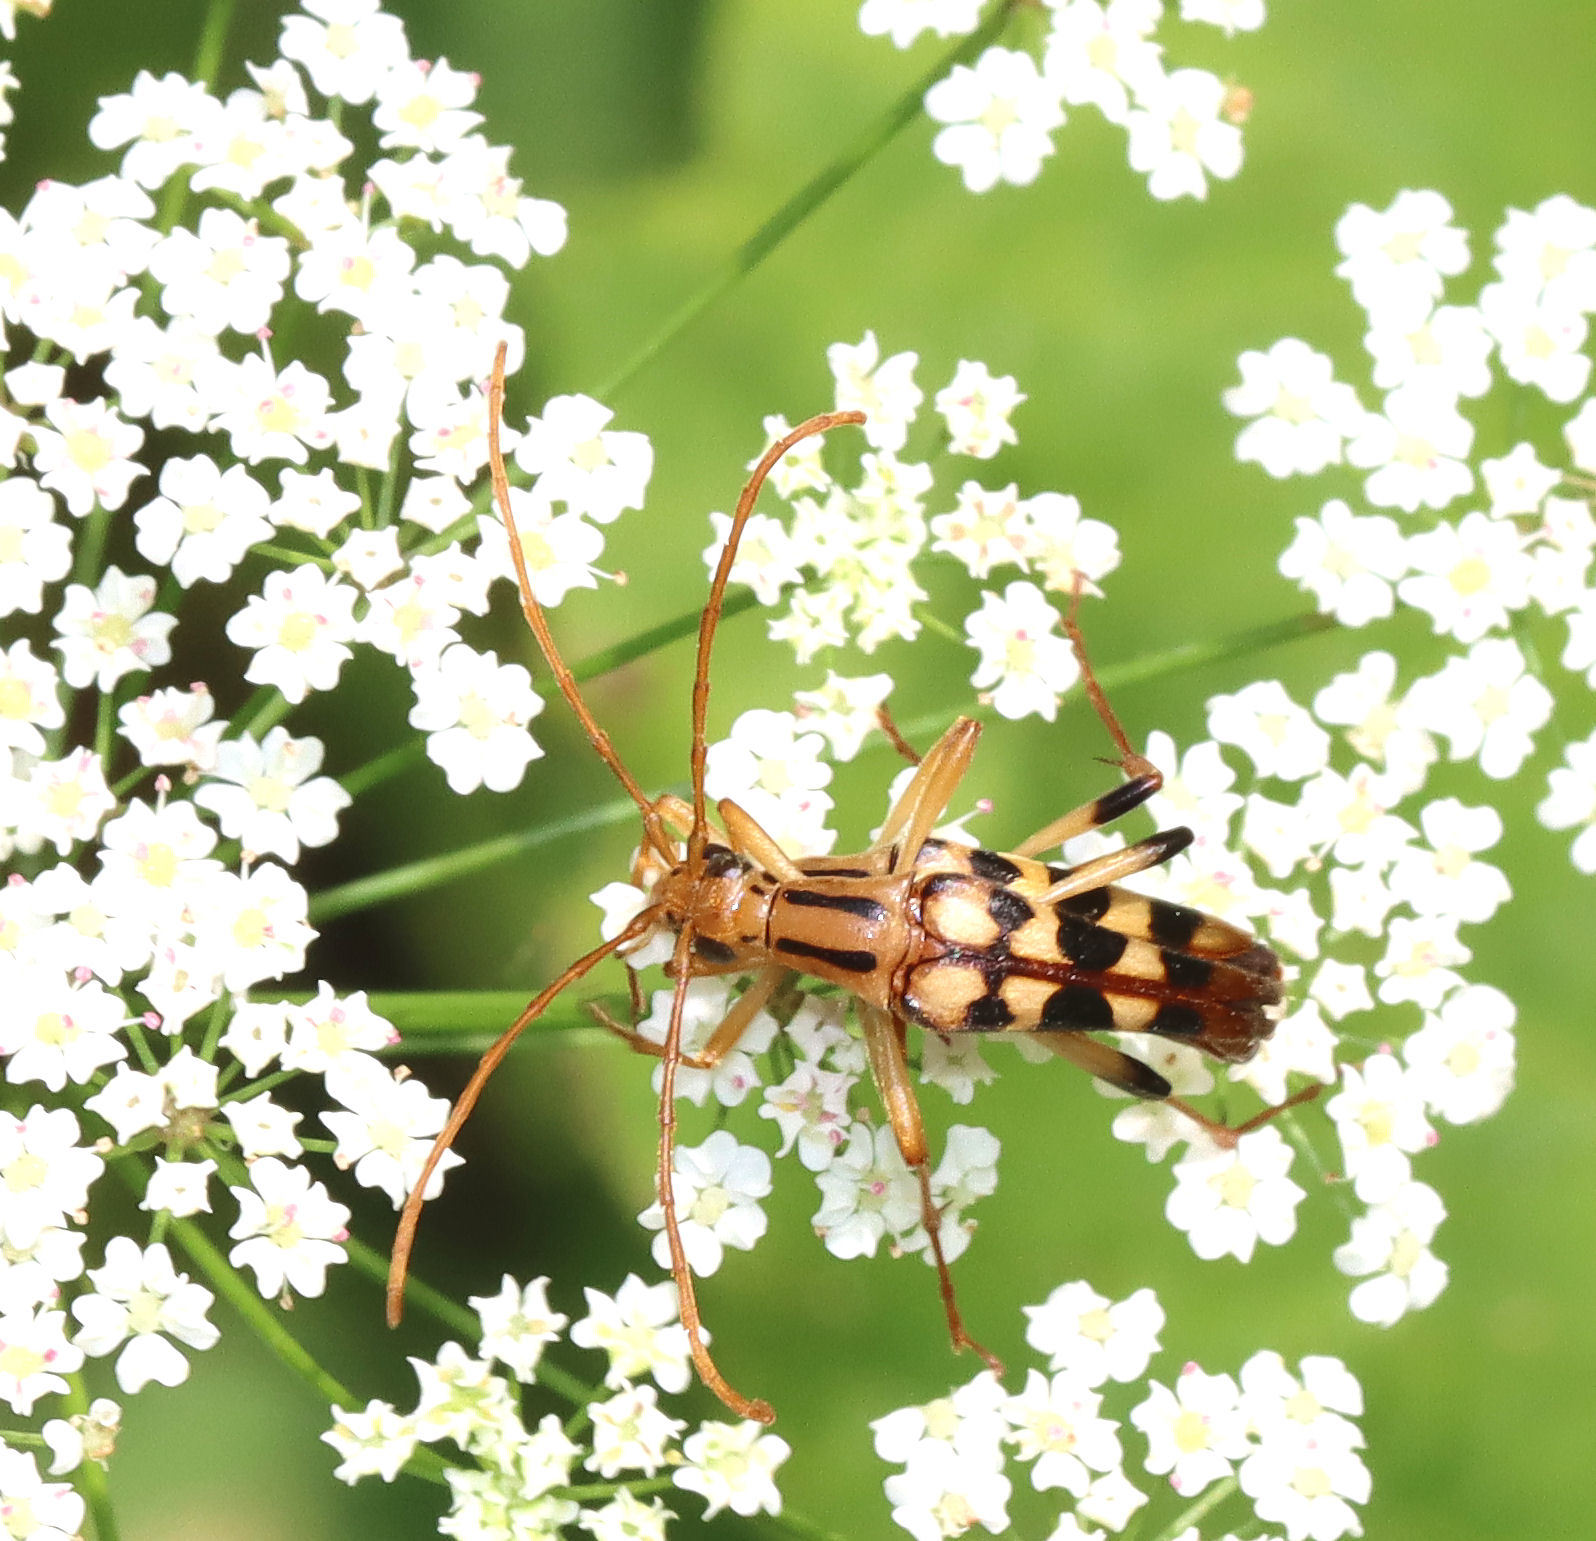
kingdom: Animalia
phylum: Arthropoda
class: Insecta
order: Coleoptera
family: Cerambycidae
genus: Strangalia
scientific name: Strangalia luteicornis
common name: Yellow-horned flower longhorn beetle
